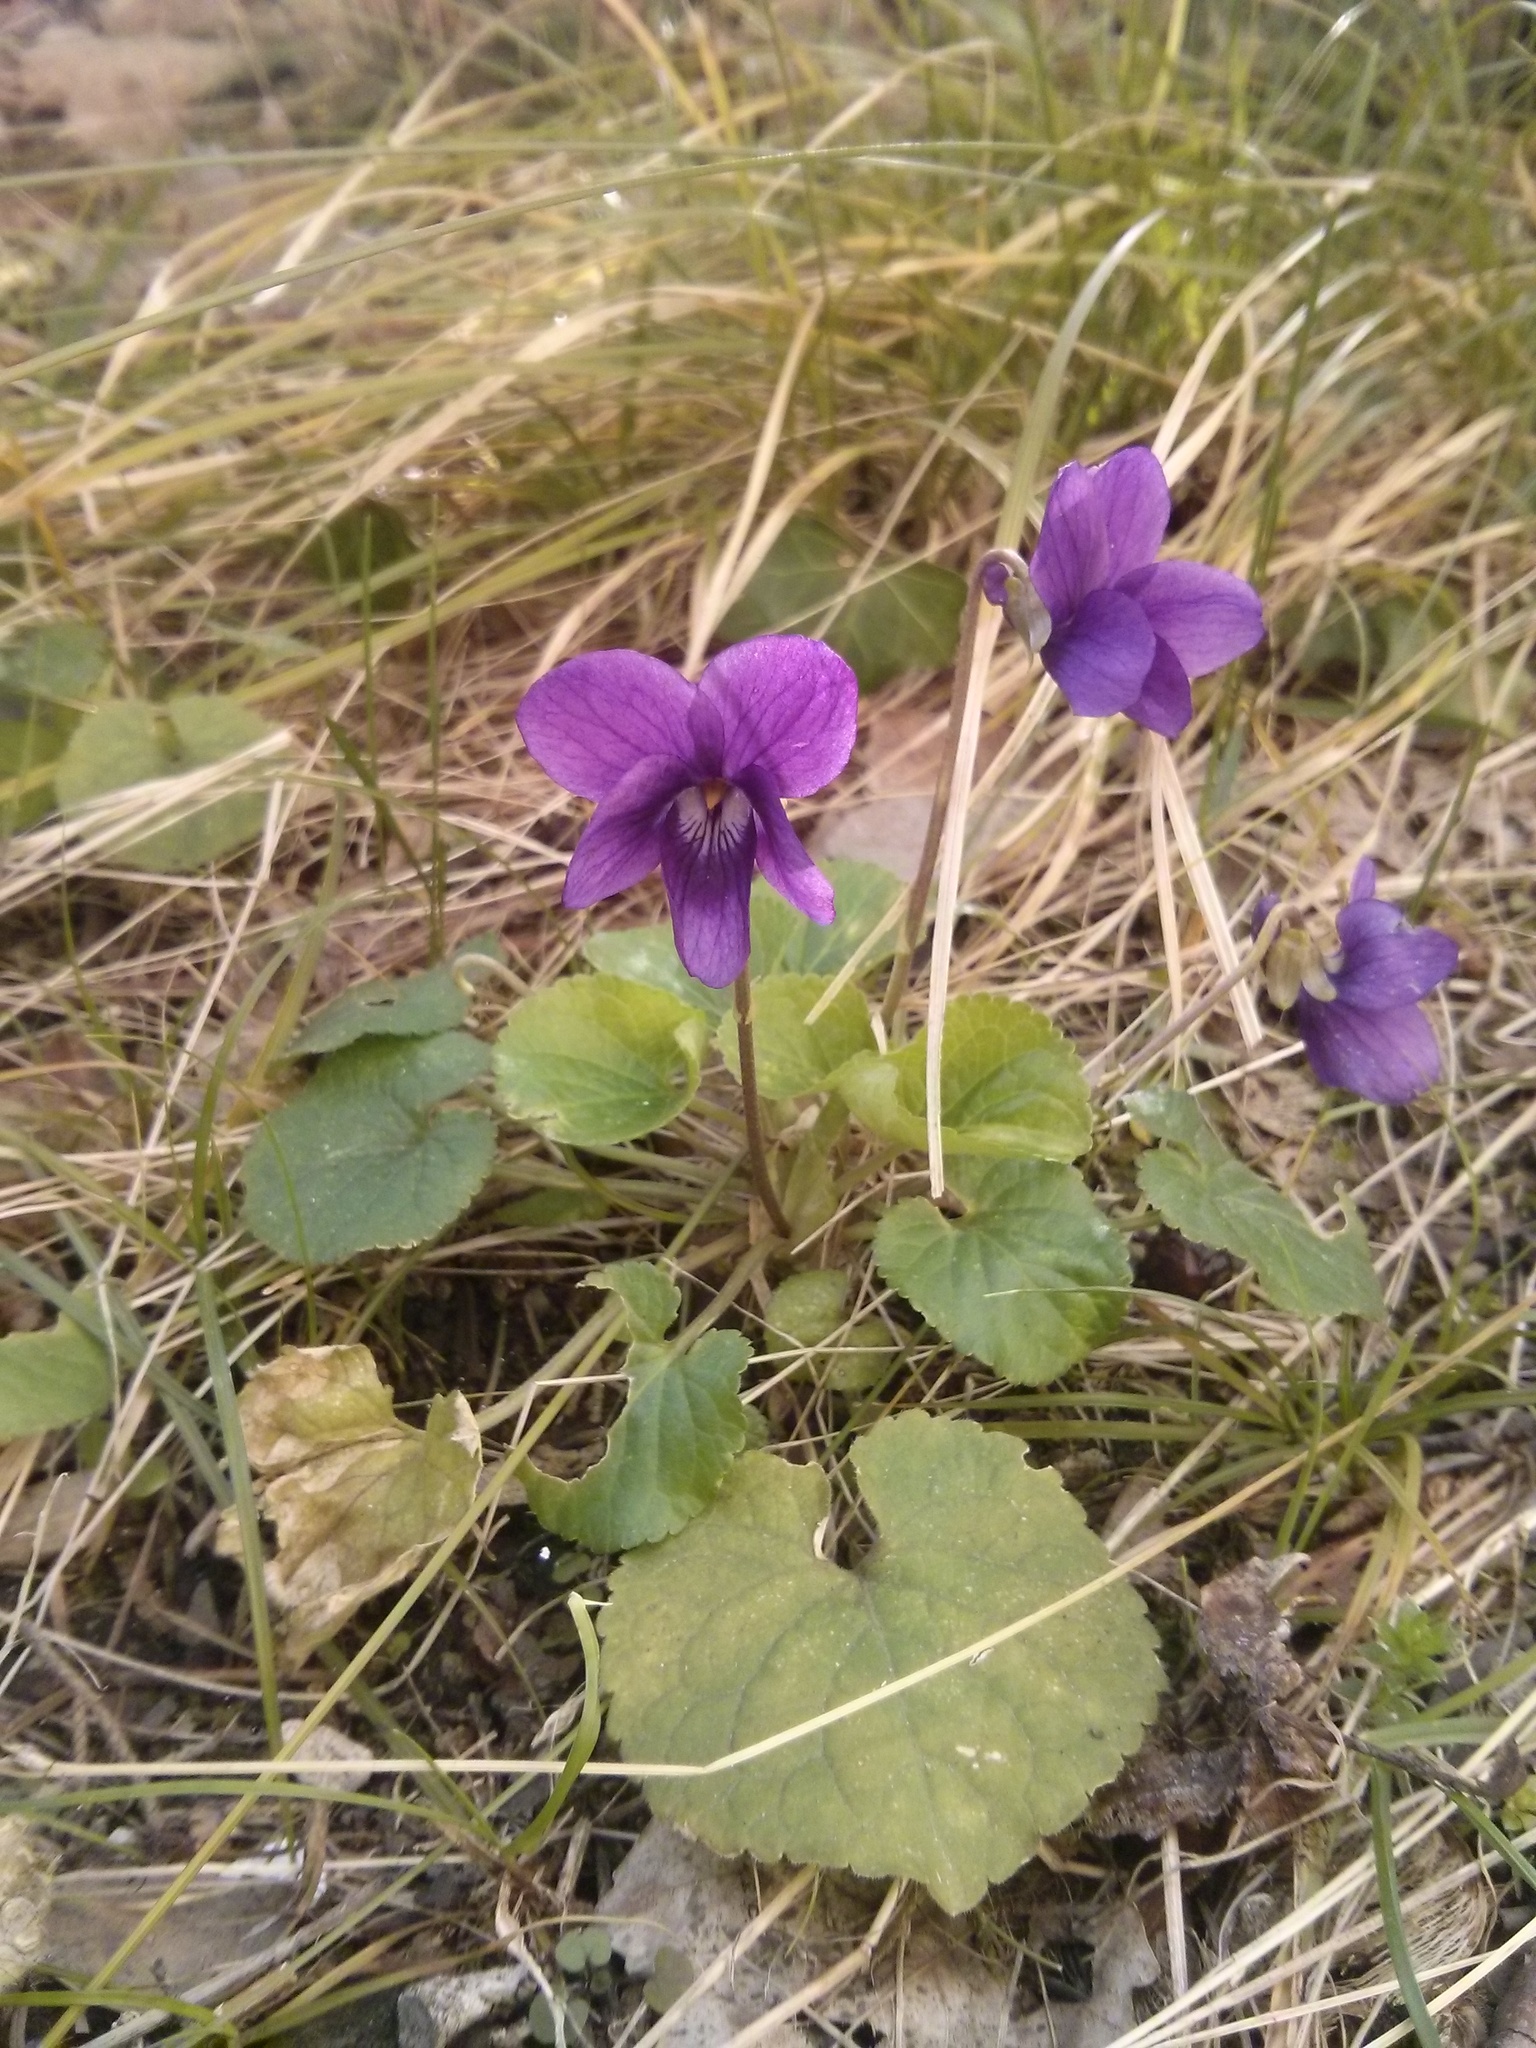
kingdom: Plantae
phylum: Tracheophyta
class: Magnoliopsida
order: Malpighiales
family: Violaceae
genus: Viola
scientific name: Viola odorata
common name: Sweet violet
